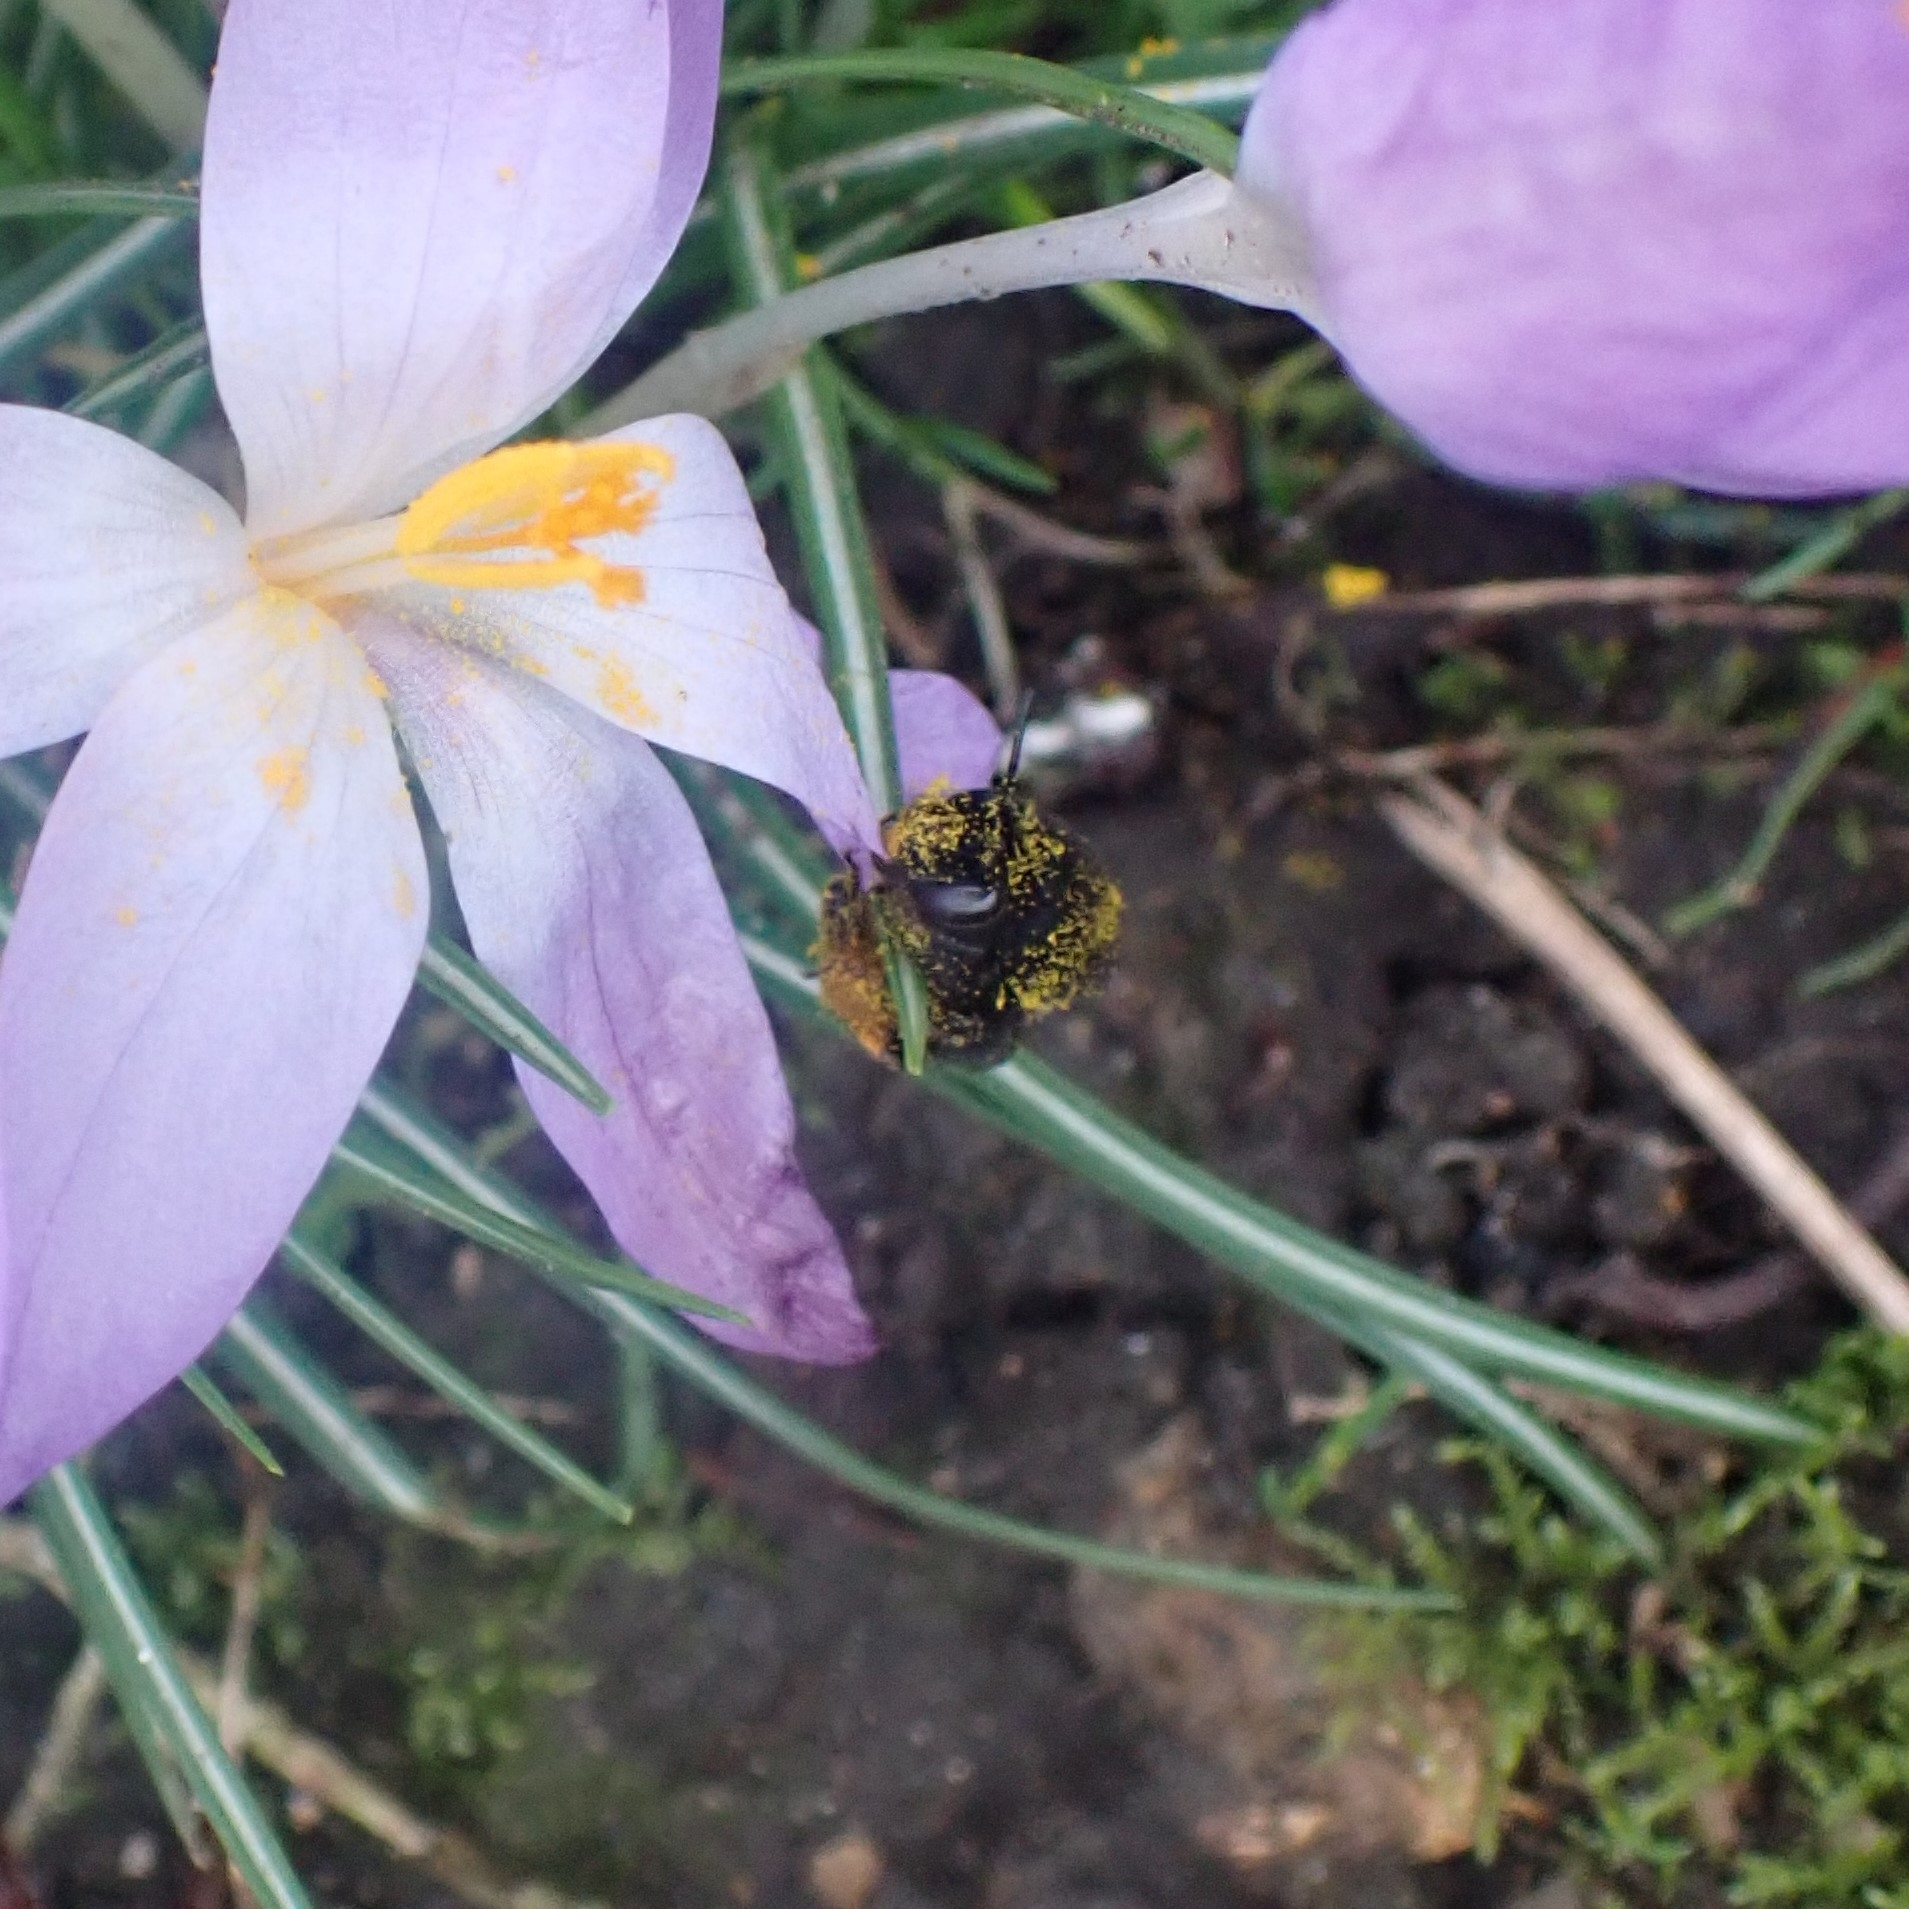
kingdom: Animalia
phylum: Arthropoda
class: Insecta
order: Hymenoptera
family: Apidae
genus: Anthophora
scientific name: Anthophora plumipes
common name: Hairy-footed flower bee
